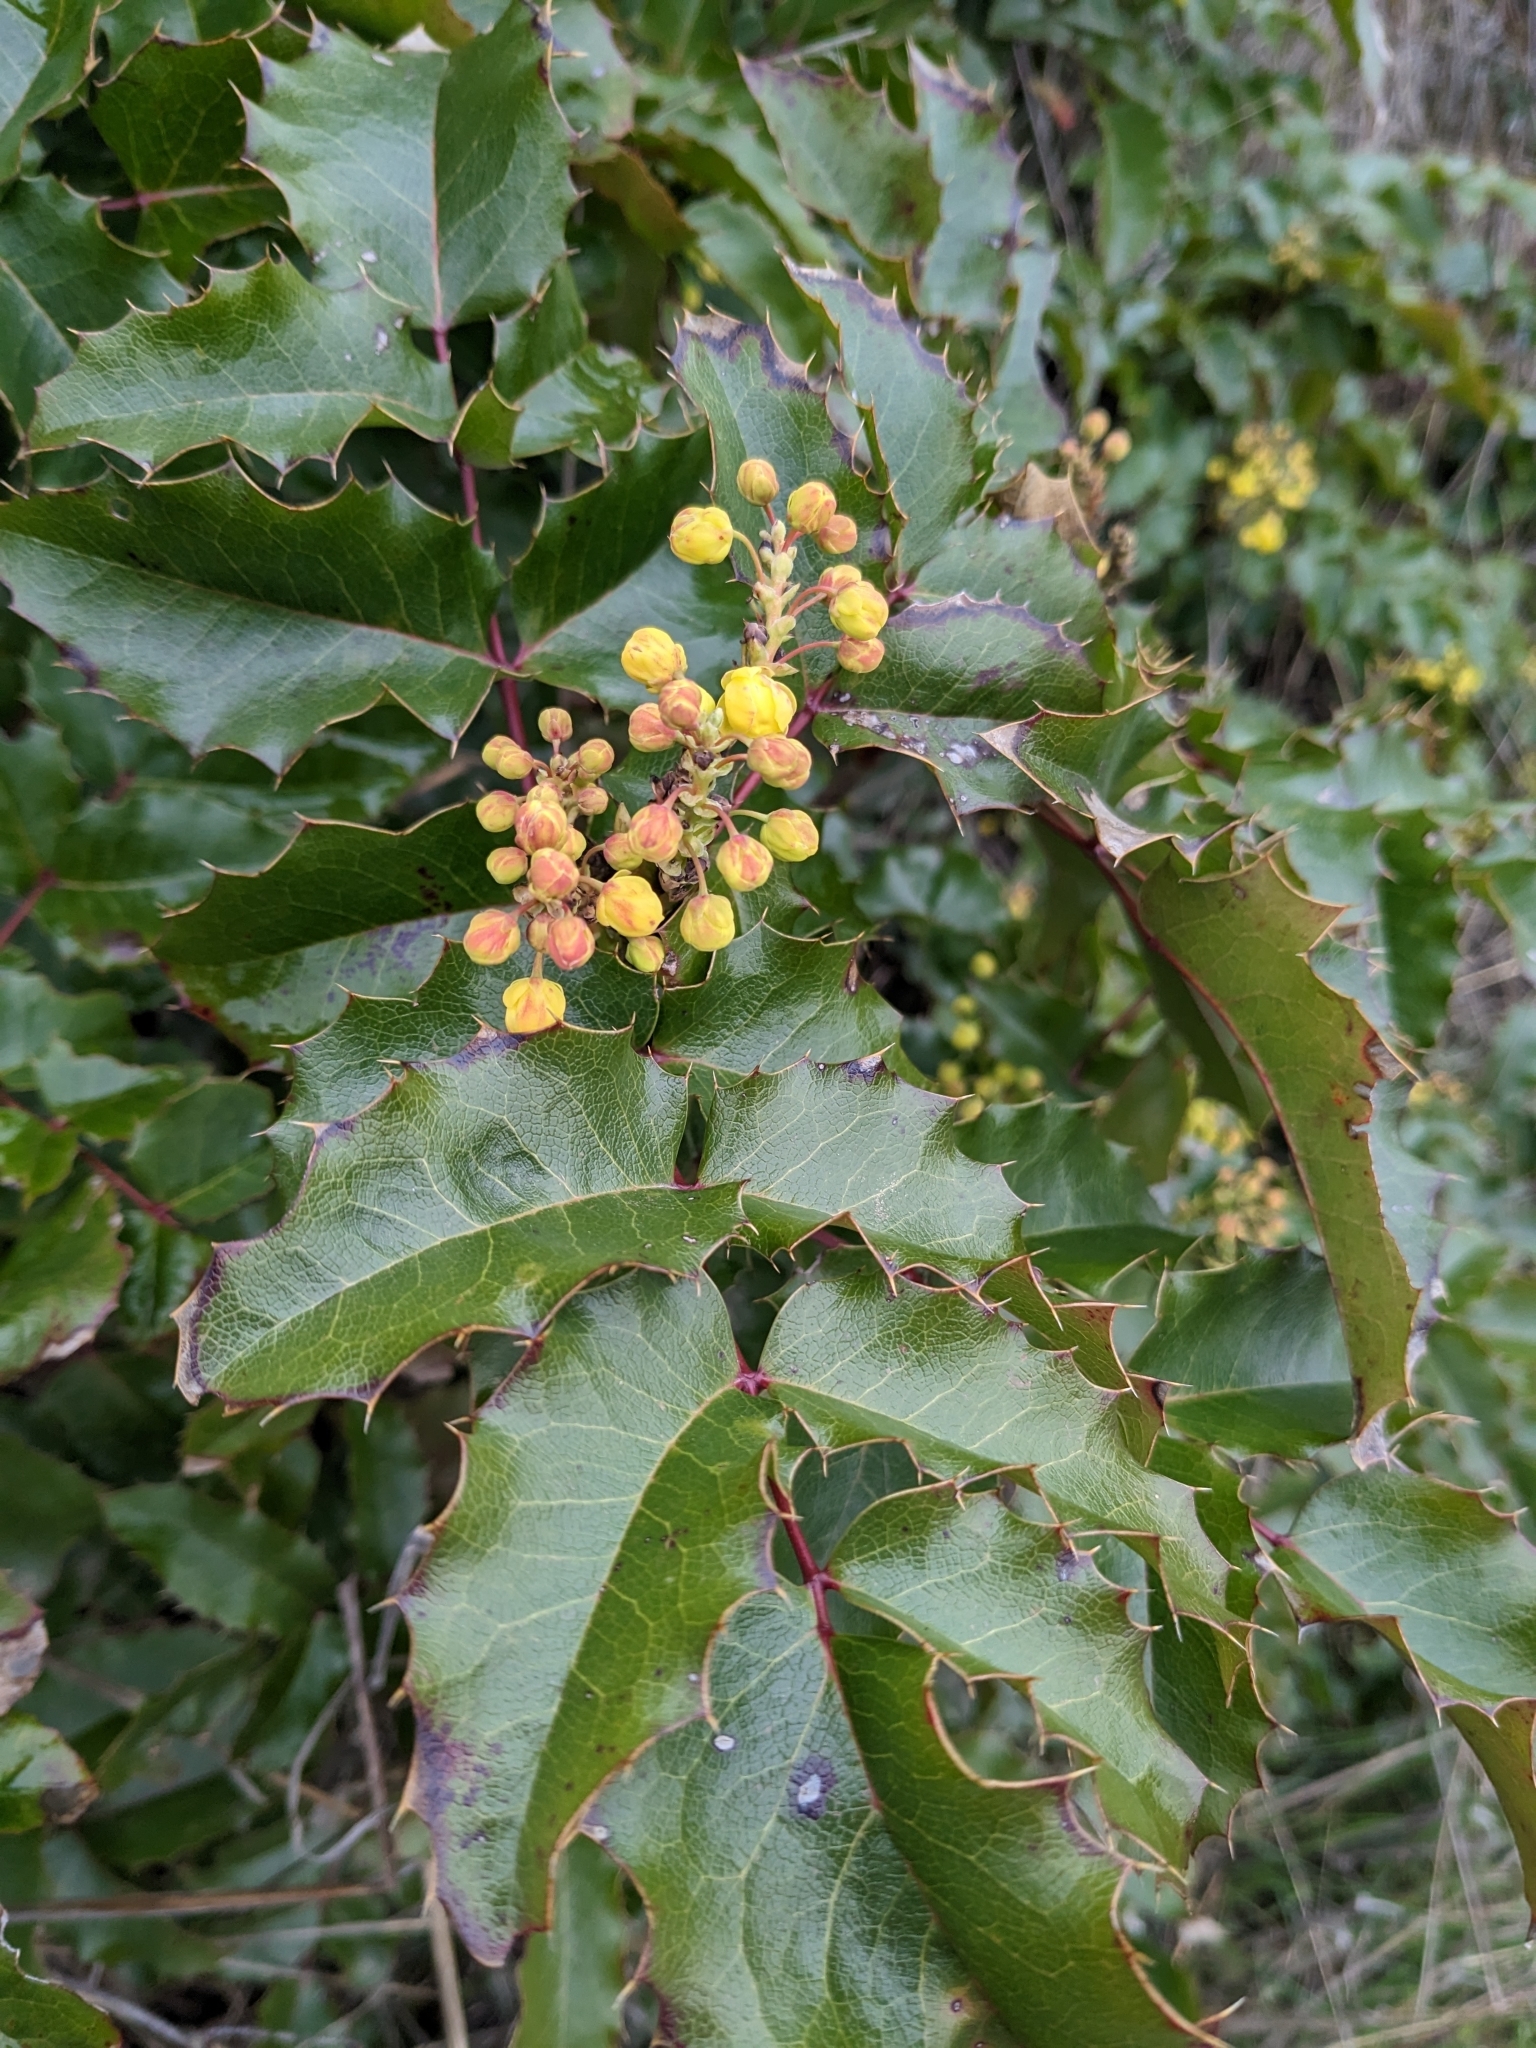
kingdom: Plantae
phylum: Tracheophyta
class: Magnoliopsida
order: Ranunculales
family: Berberidaceae
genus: Mahonia
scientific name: Mahonia aquifolium
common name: Oregon-grape
